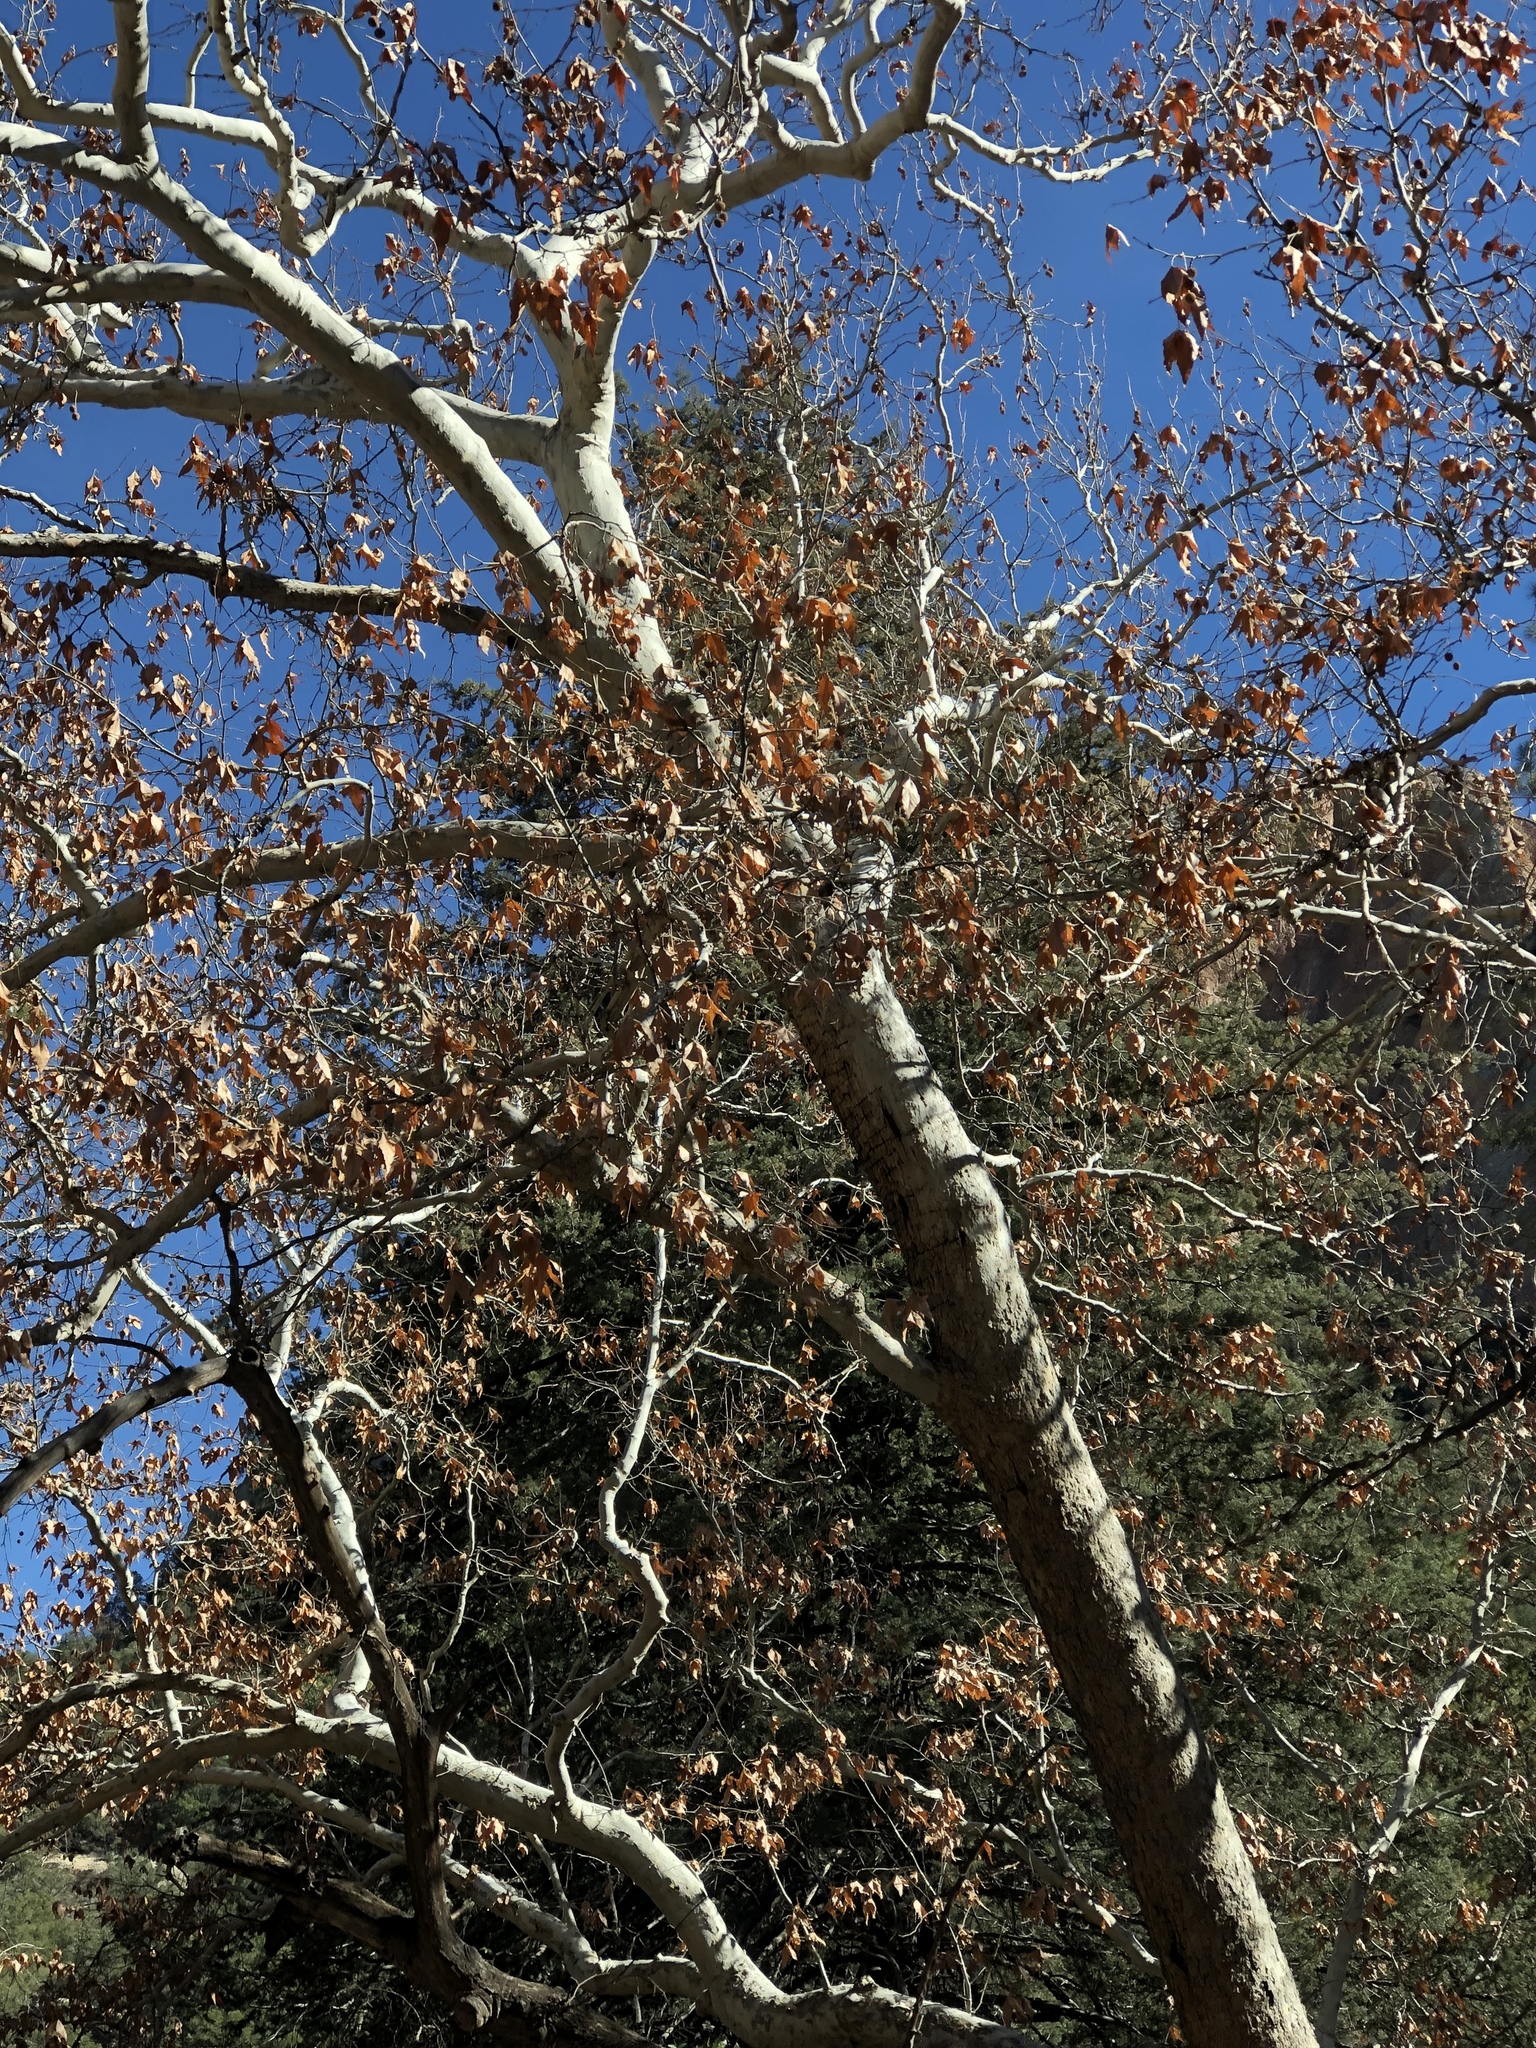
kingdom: Plantae
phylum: Tracheophyta
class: Magnoliopsida
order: Proteales
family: Platanaceae
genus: Platanus
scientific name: Platanus wrightii
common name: Arizona sycamore
